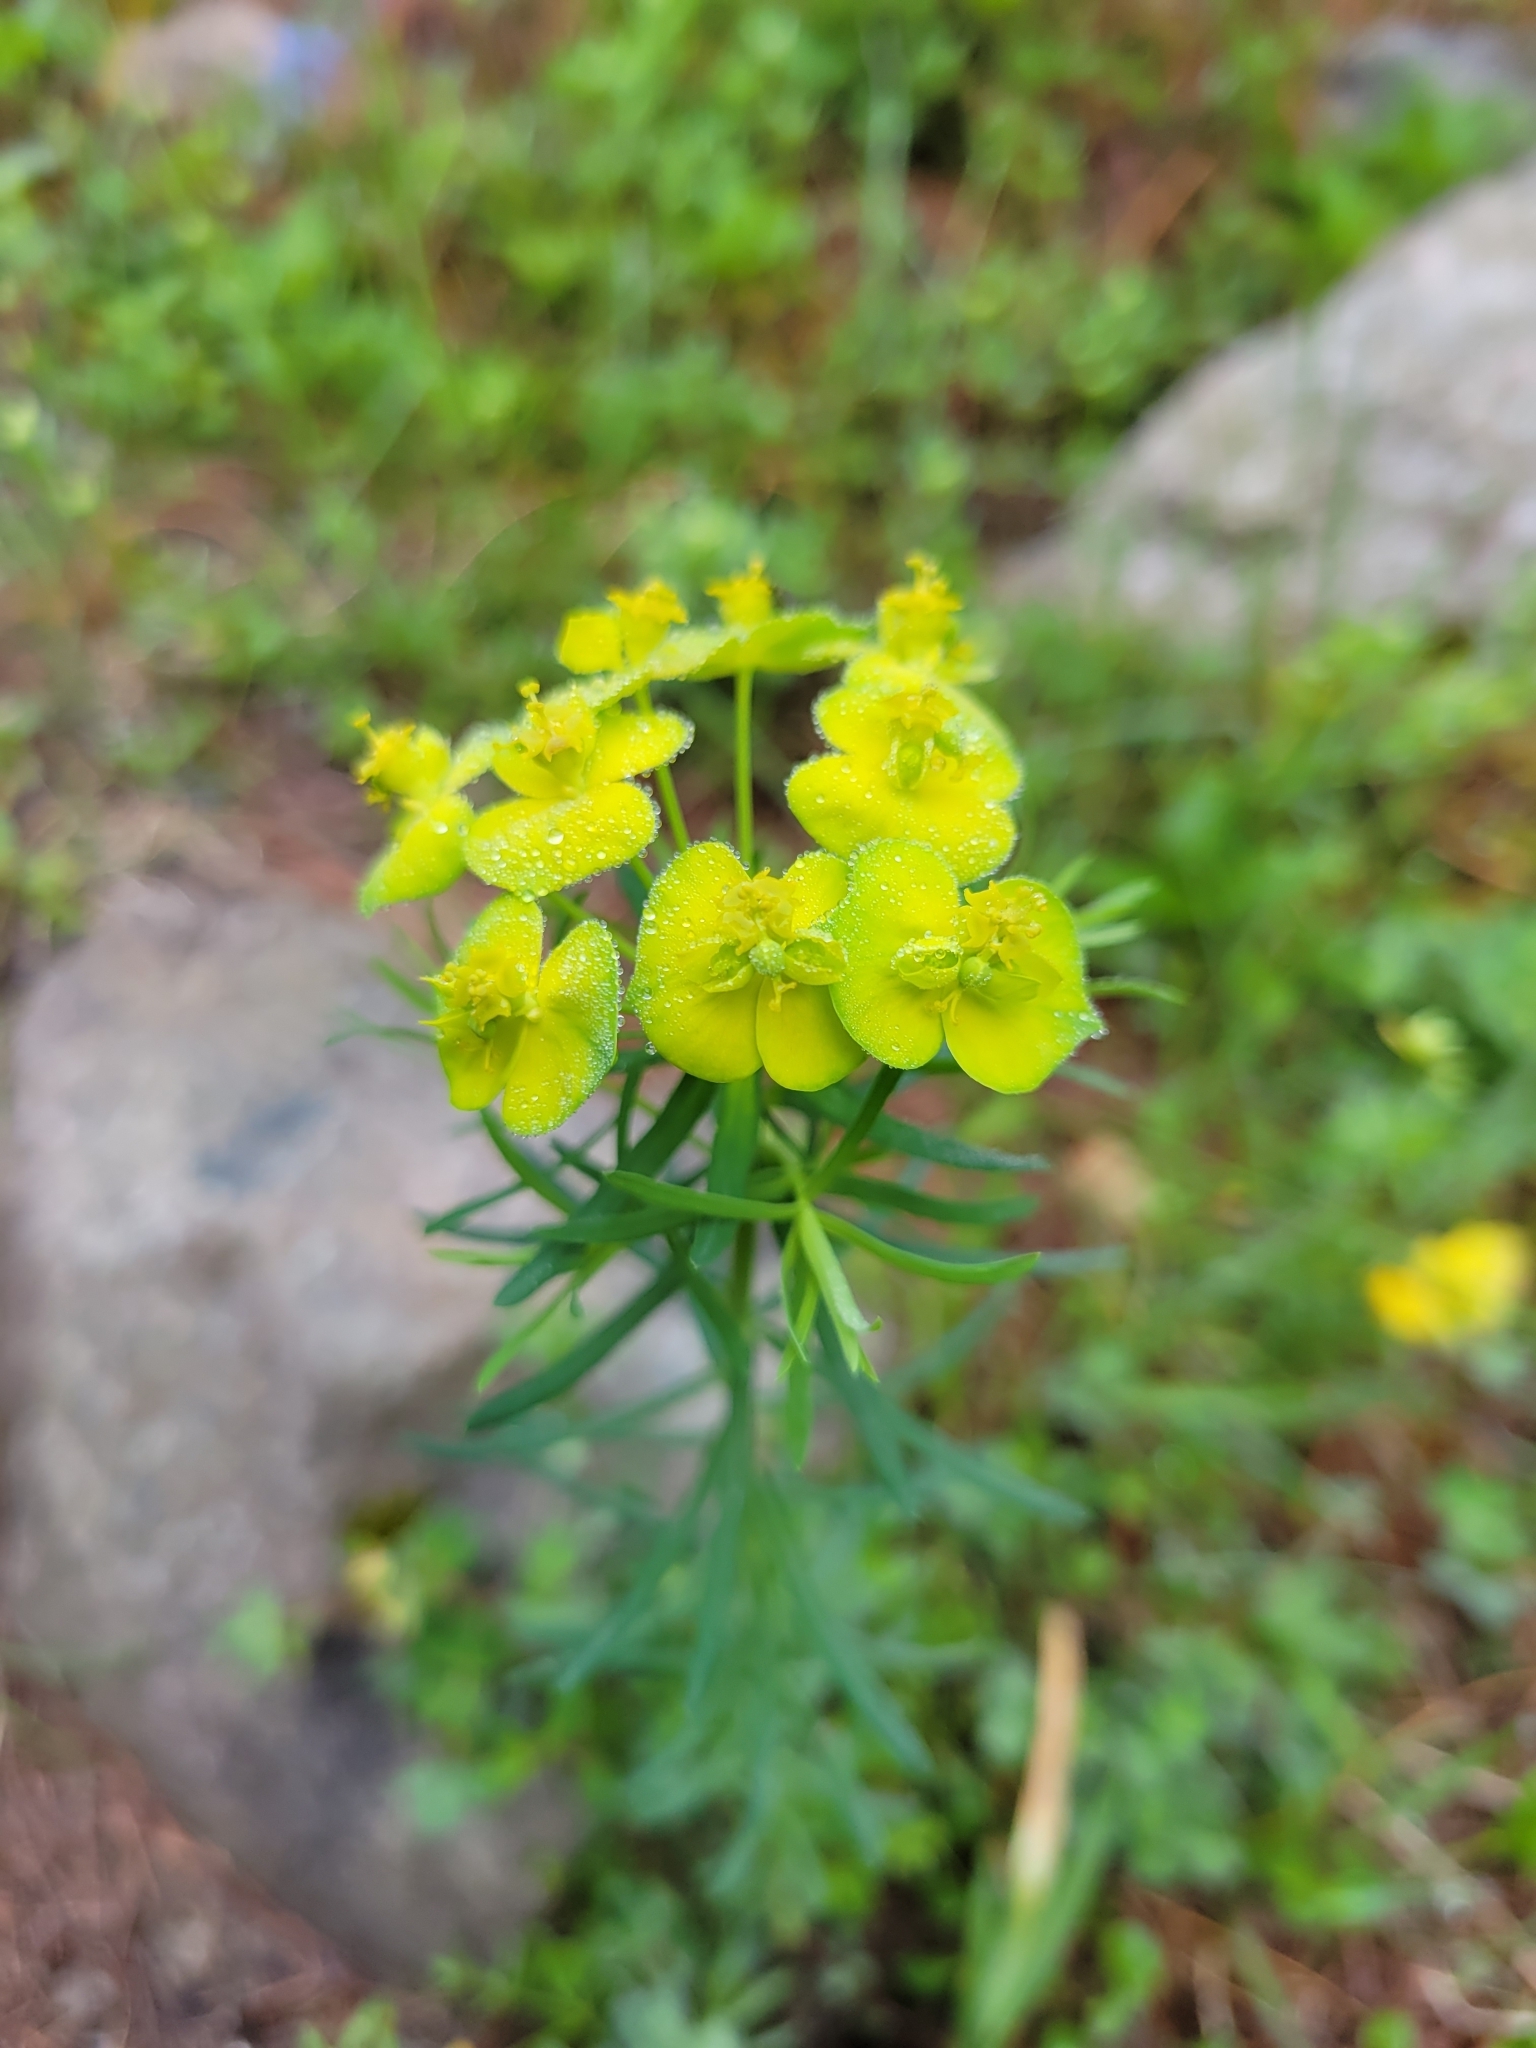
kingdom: Plantae
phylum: Tracheophyta
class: Magnoliopsida
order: Malpighiales
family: Euphorbiaceae
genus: Euphorbia
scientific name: Euphorbia cyparissias
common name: Cypress spurge
